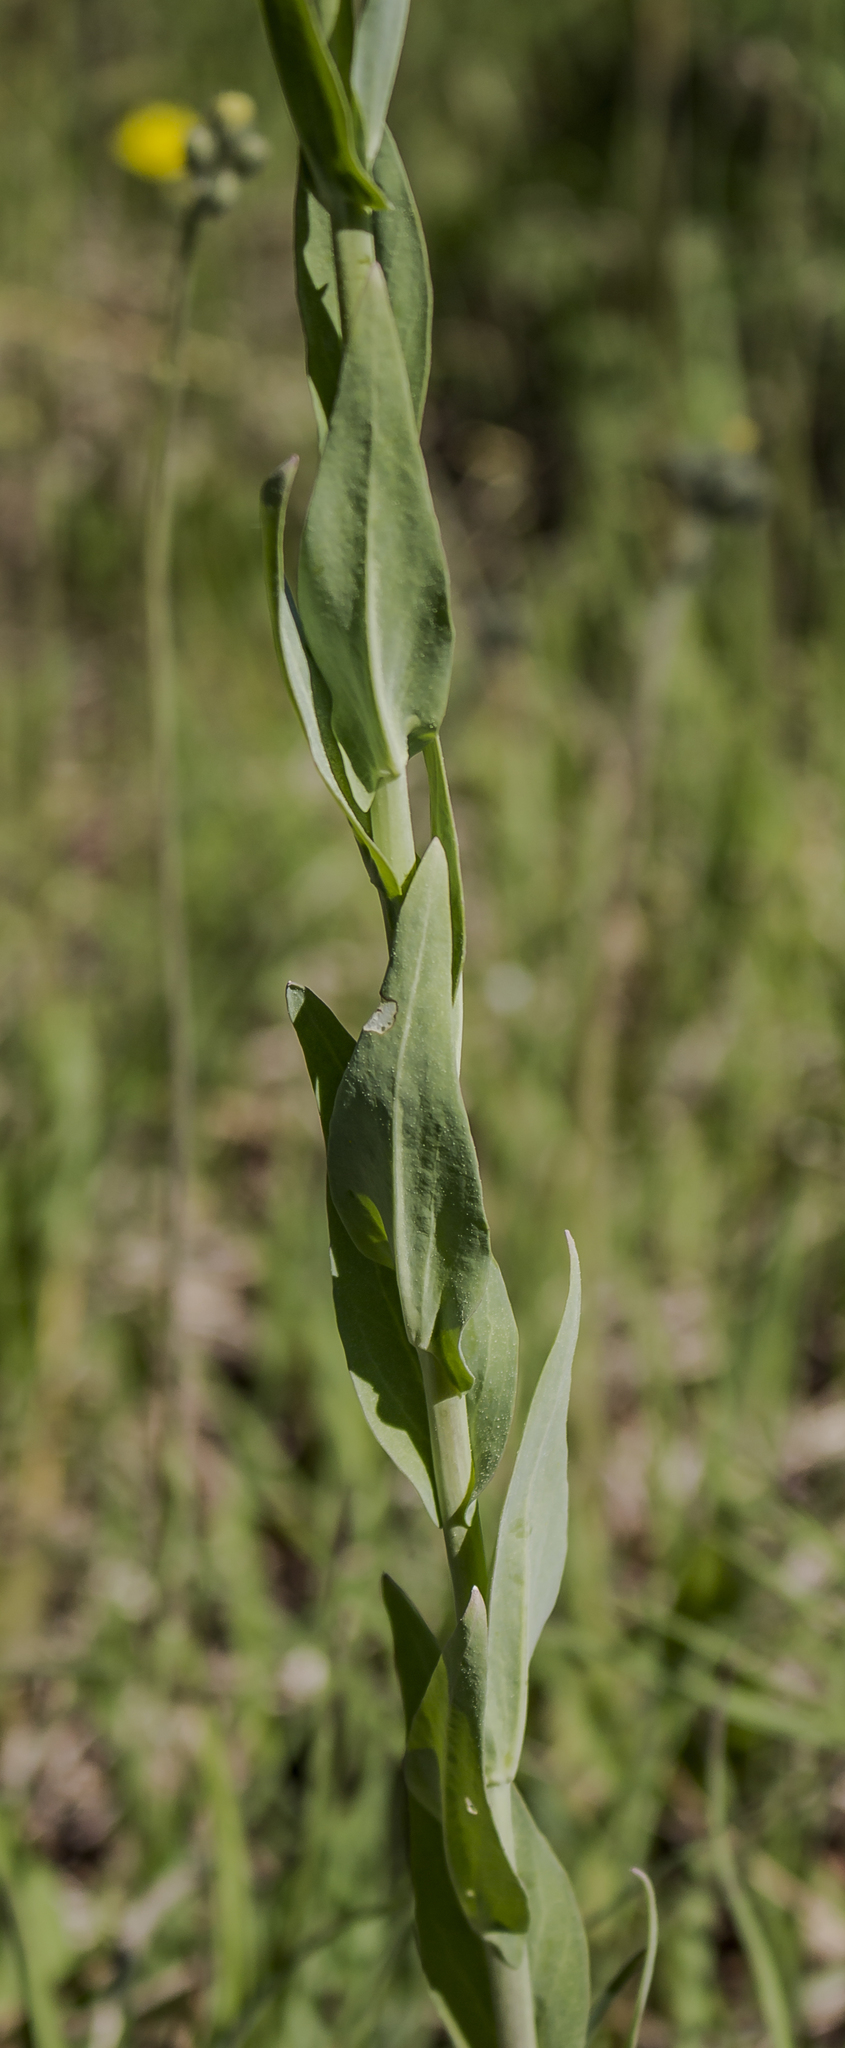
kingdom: Plantae
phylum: Tracheophyta
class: Magnoliopsida
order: Brassicales
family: Brassicaceae
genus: Turritis
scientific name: Turritis glabra
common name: Tower rockcress
